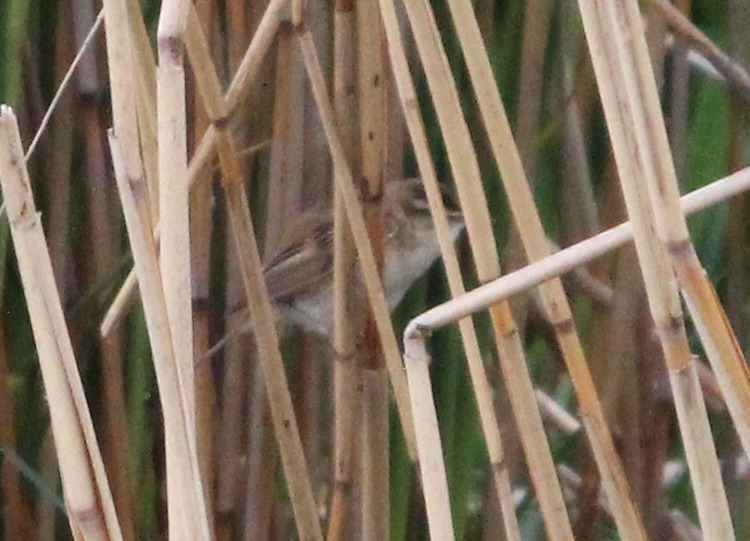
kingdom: Animalia
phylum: Chordata
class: Aves
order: Passeriformes
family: Acrocephalidae
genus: Acrocephalus
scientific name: Acrocephalus schoenobaenus
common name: Sedge warbler
